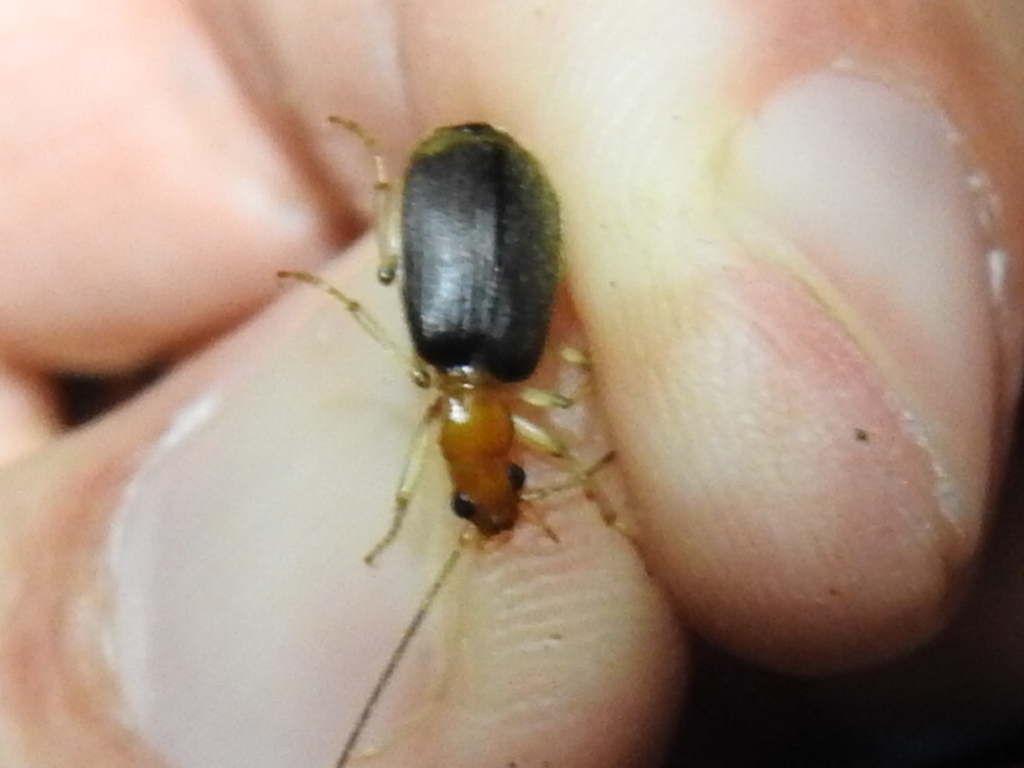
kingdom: Animalia
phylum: Arthropoda
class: Insecta
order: Coleoptera
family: Carabidae
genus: Brachinus
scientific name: Brachinus adustipennis
